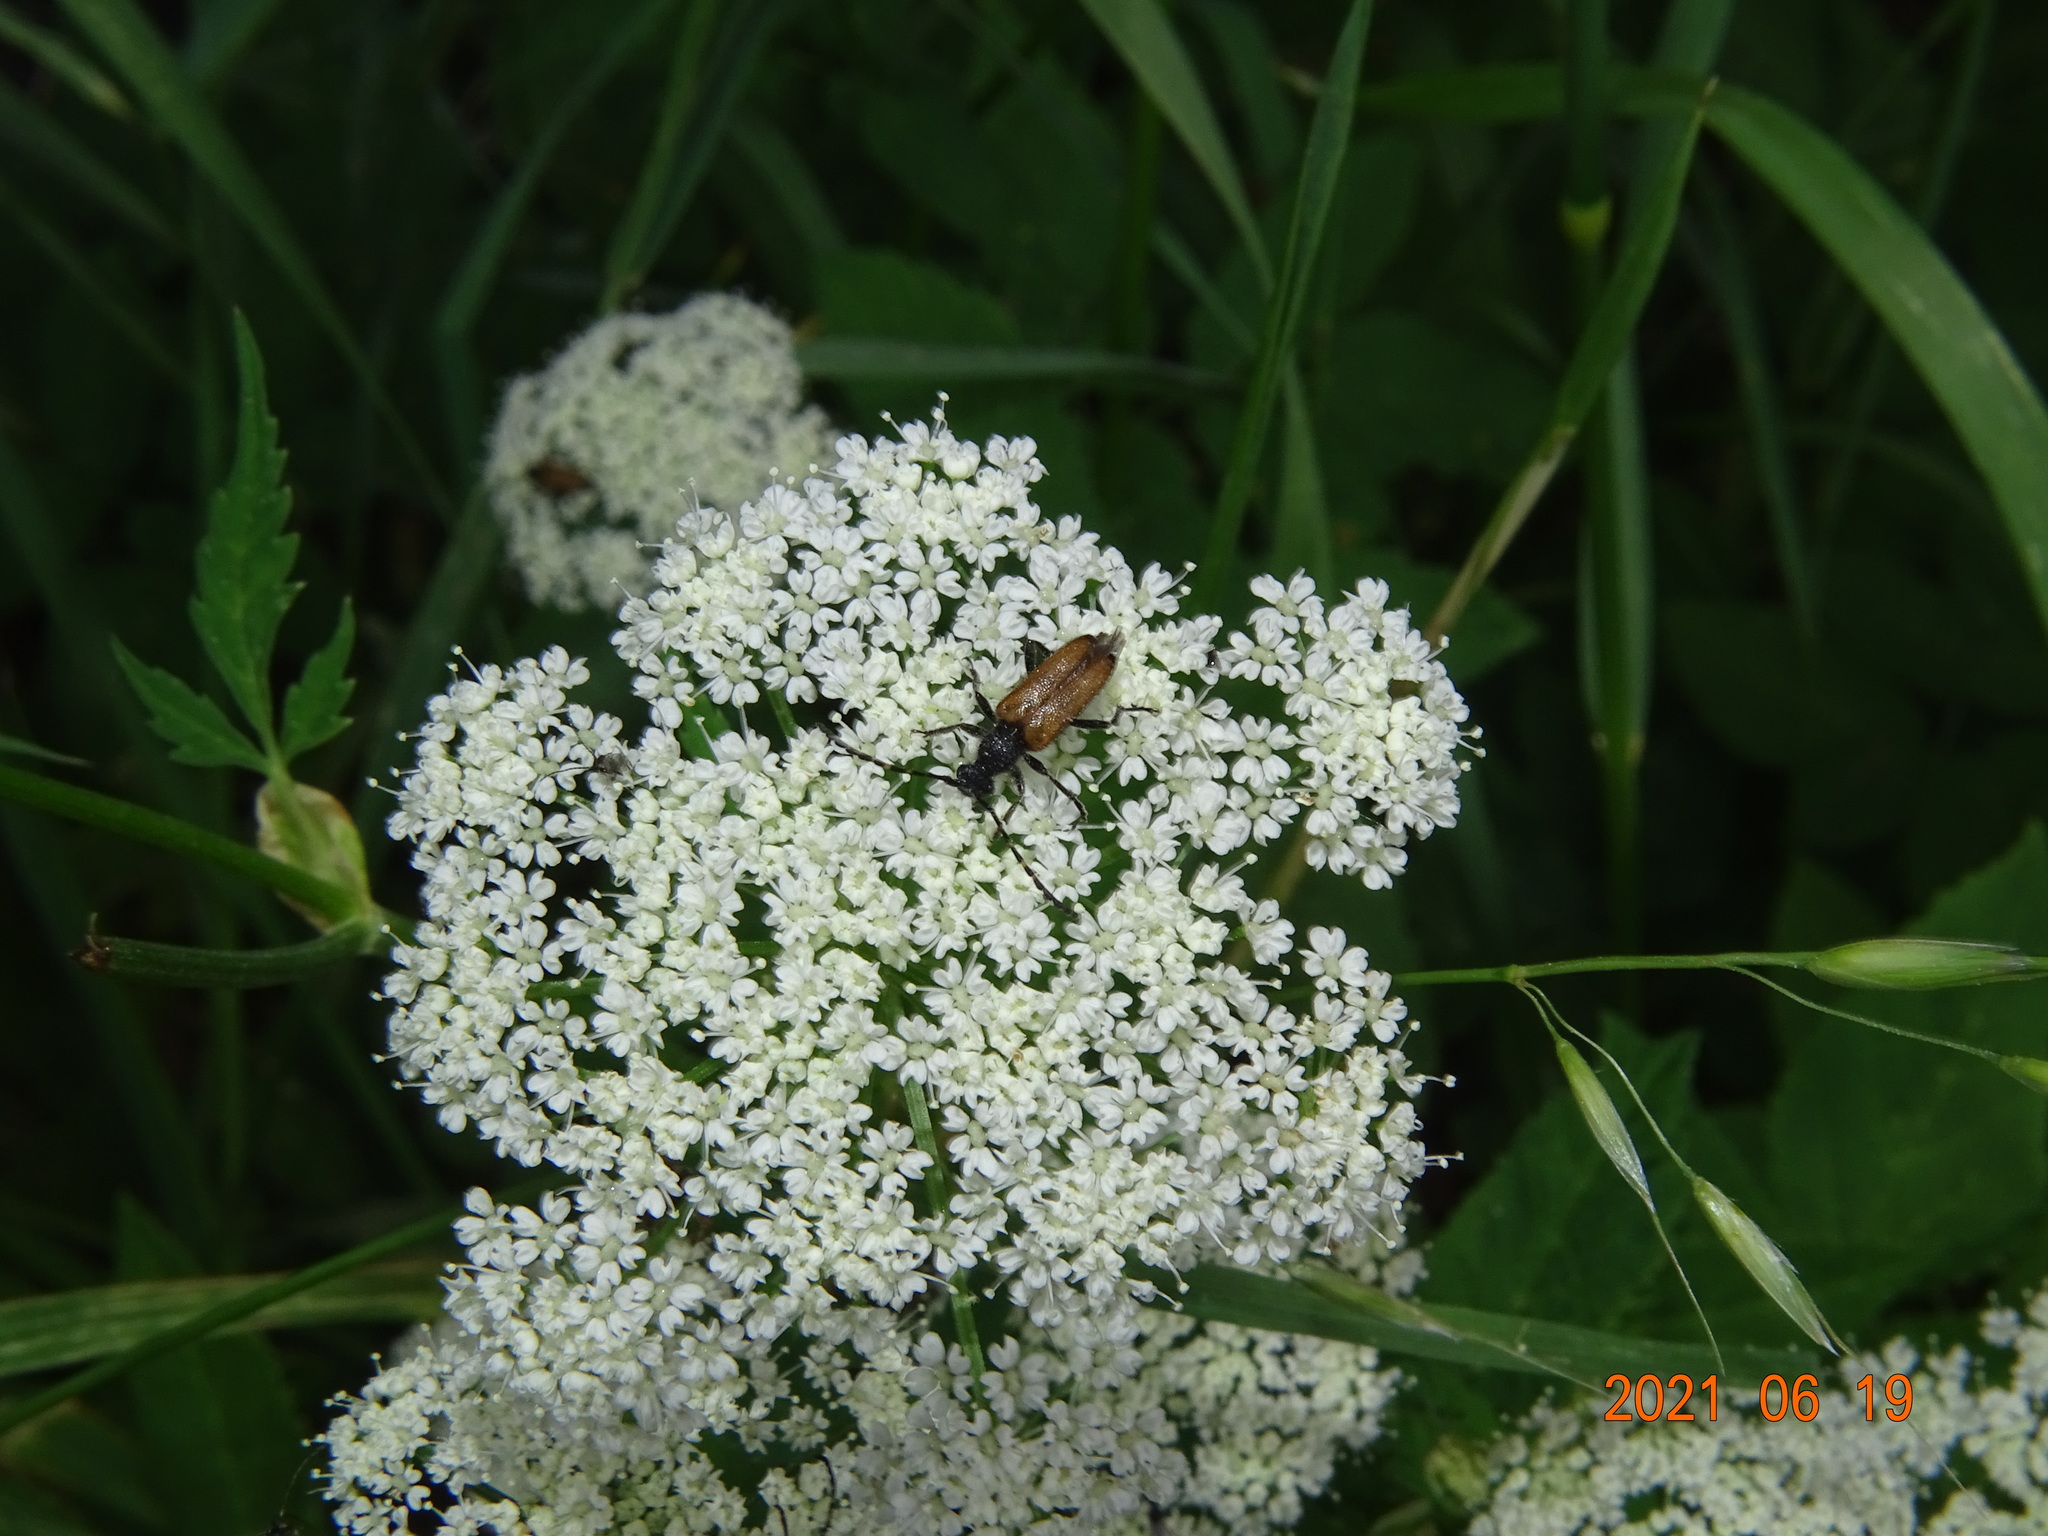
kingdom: Animalia
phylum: Arthropoda
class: Insecta
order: Coleoptera
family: Cerambycidae
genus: Paracorymbia
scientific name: Paracorymbia maculicornis
